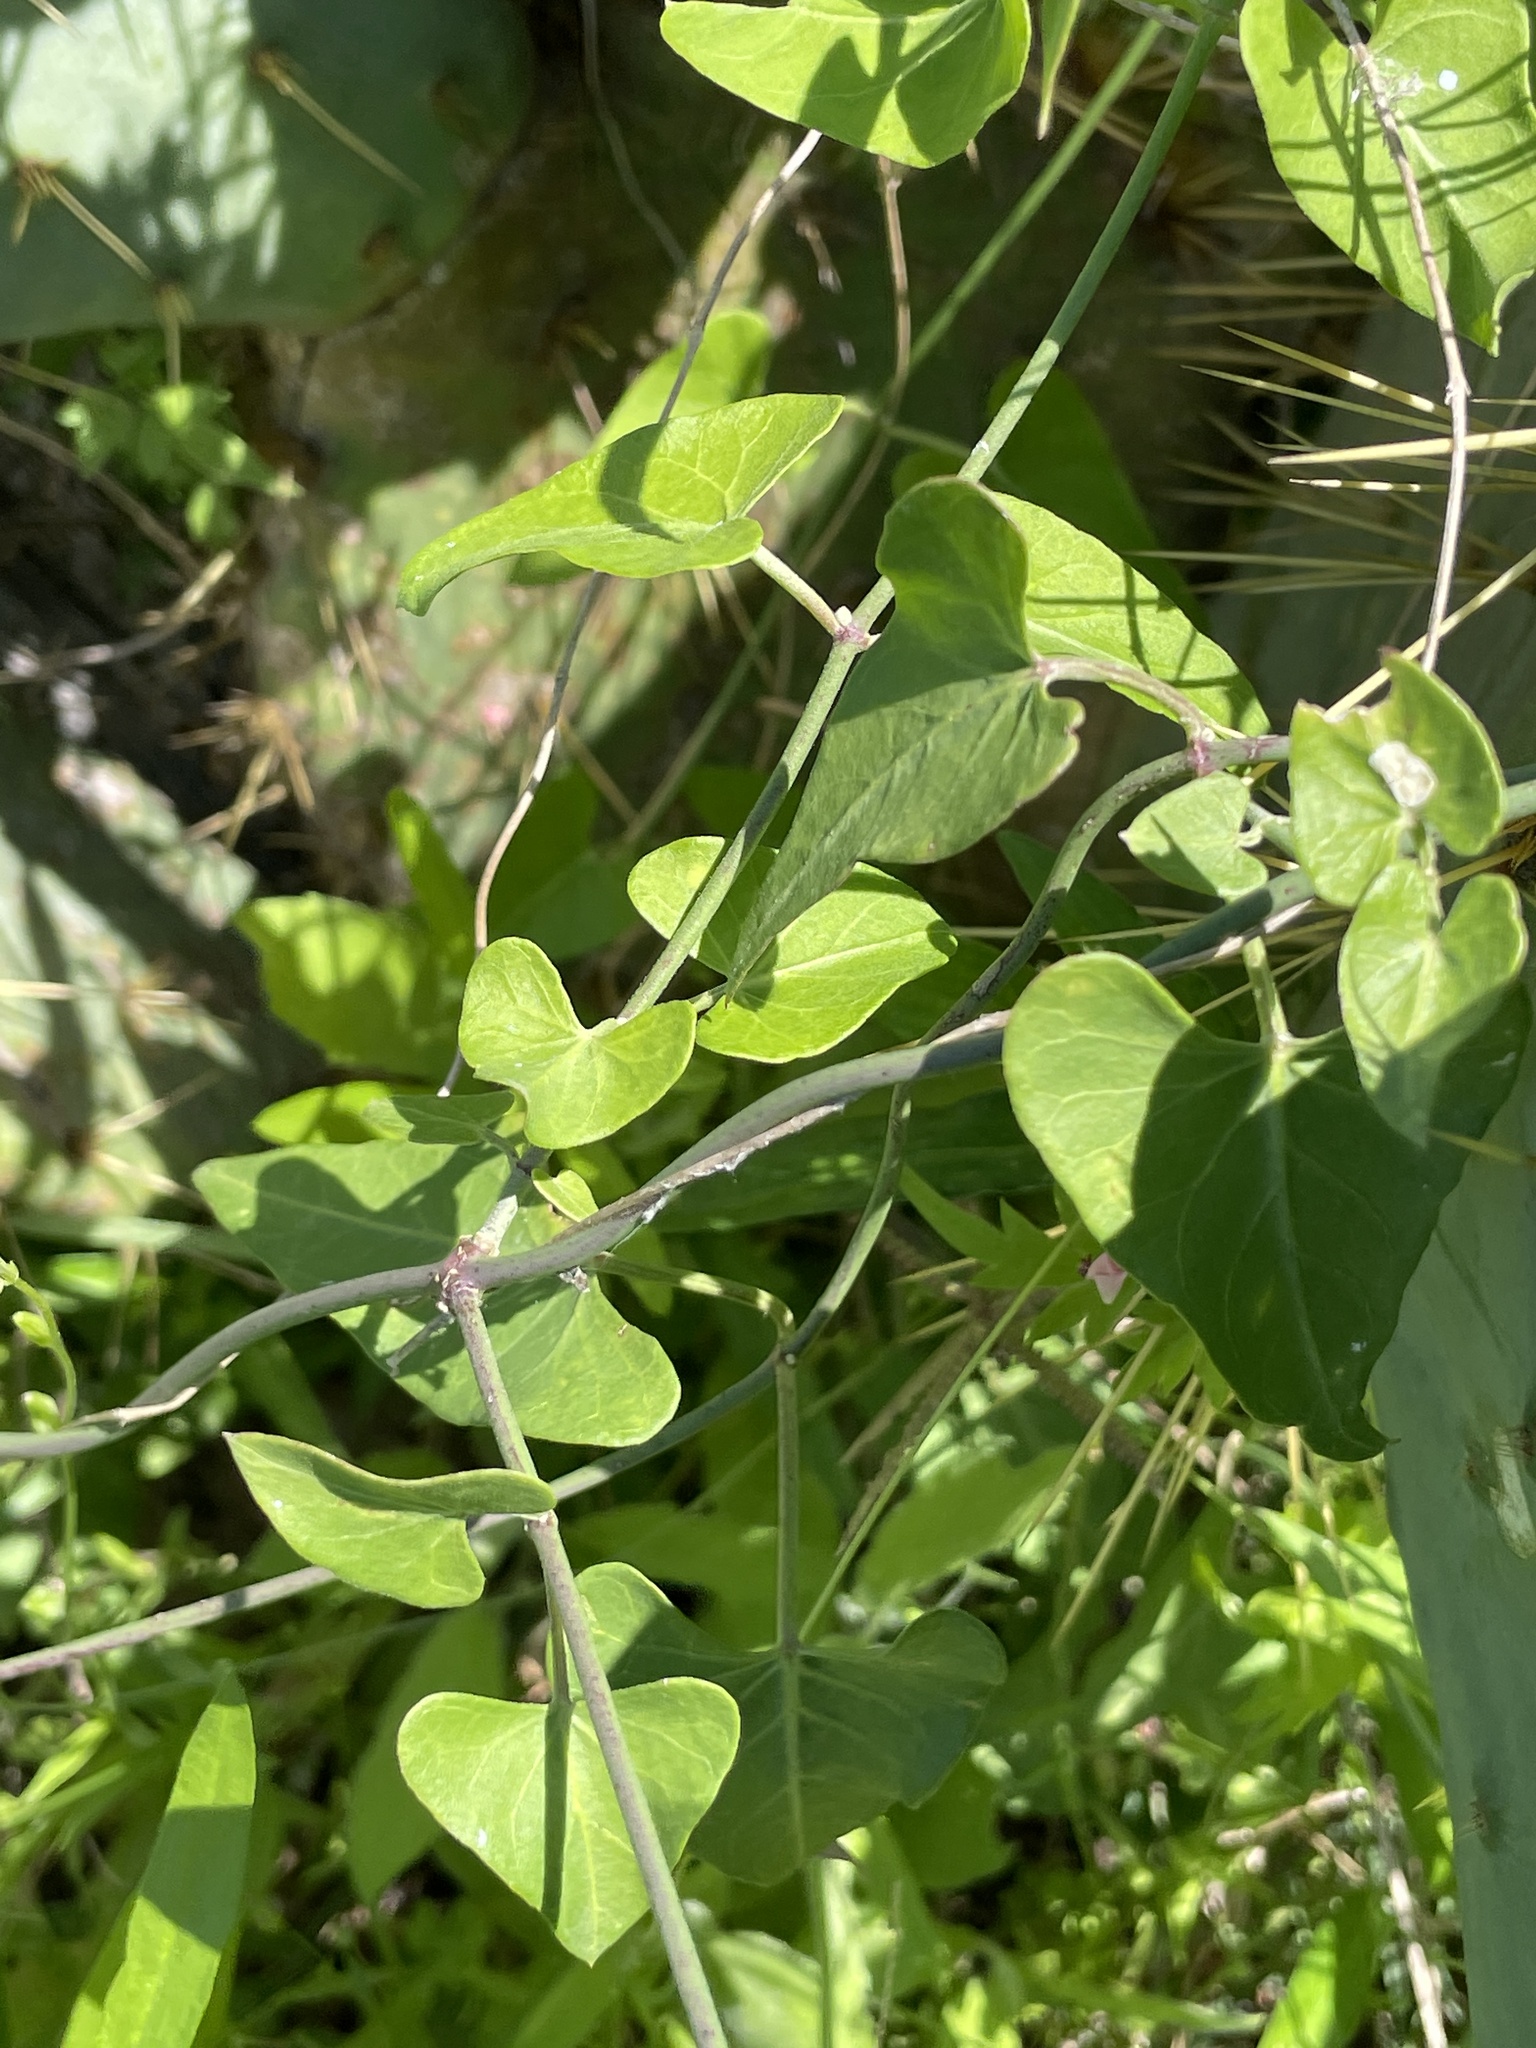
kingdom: Plantae
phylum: Tracheophyta
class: Magnoliopsida
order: Gentianales
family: Apocynaceae
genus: Funastrum
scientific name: Funastrum cynanchoides
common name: Climbing-milkweed
